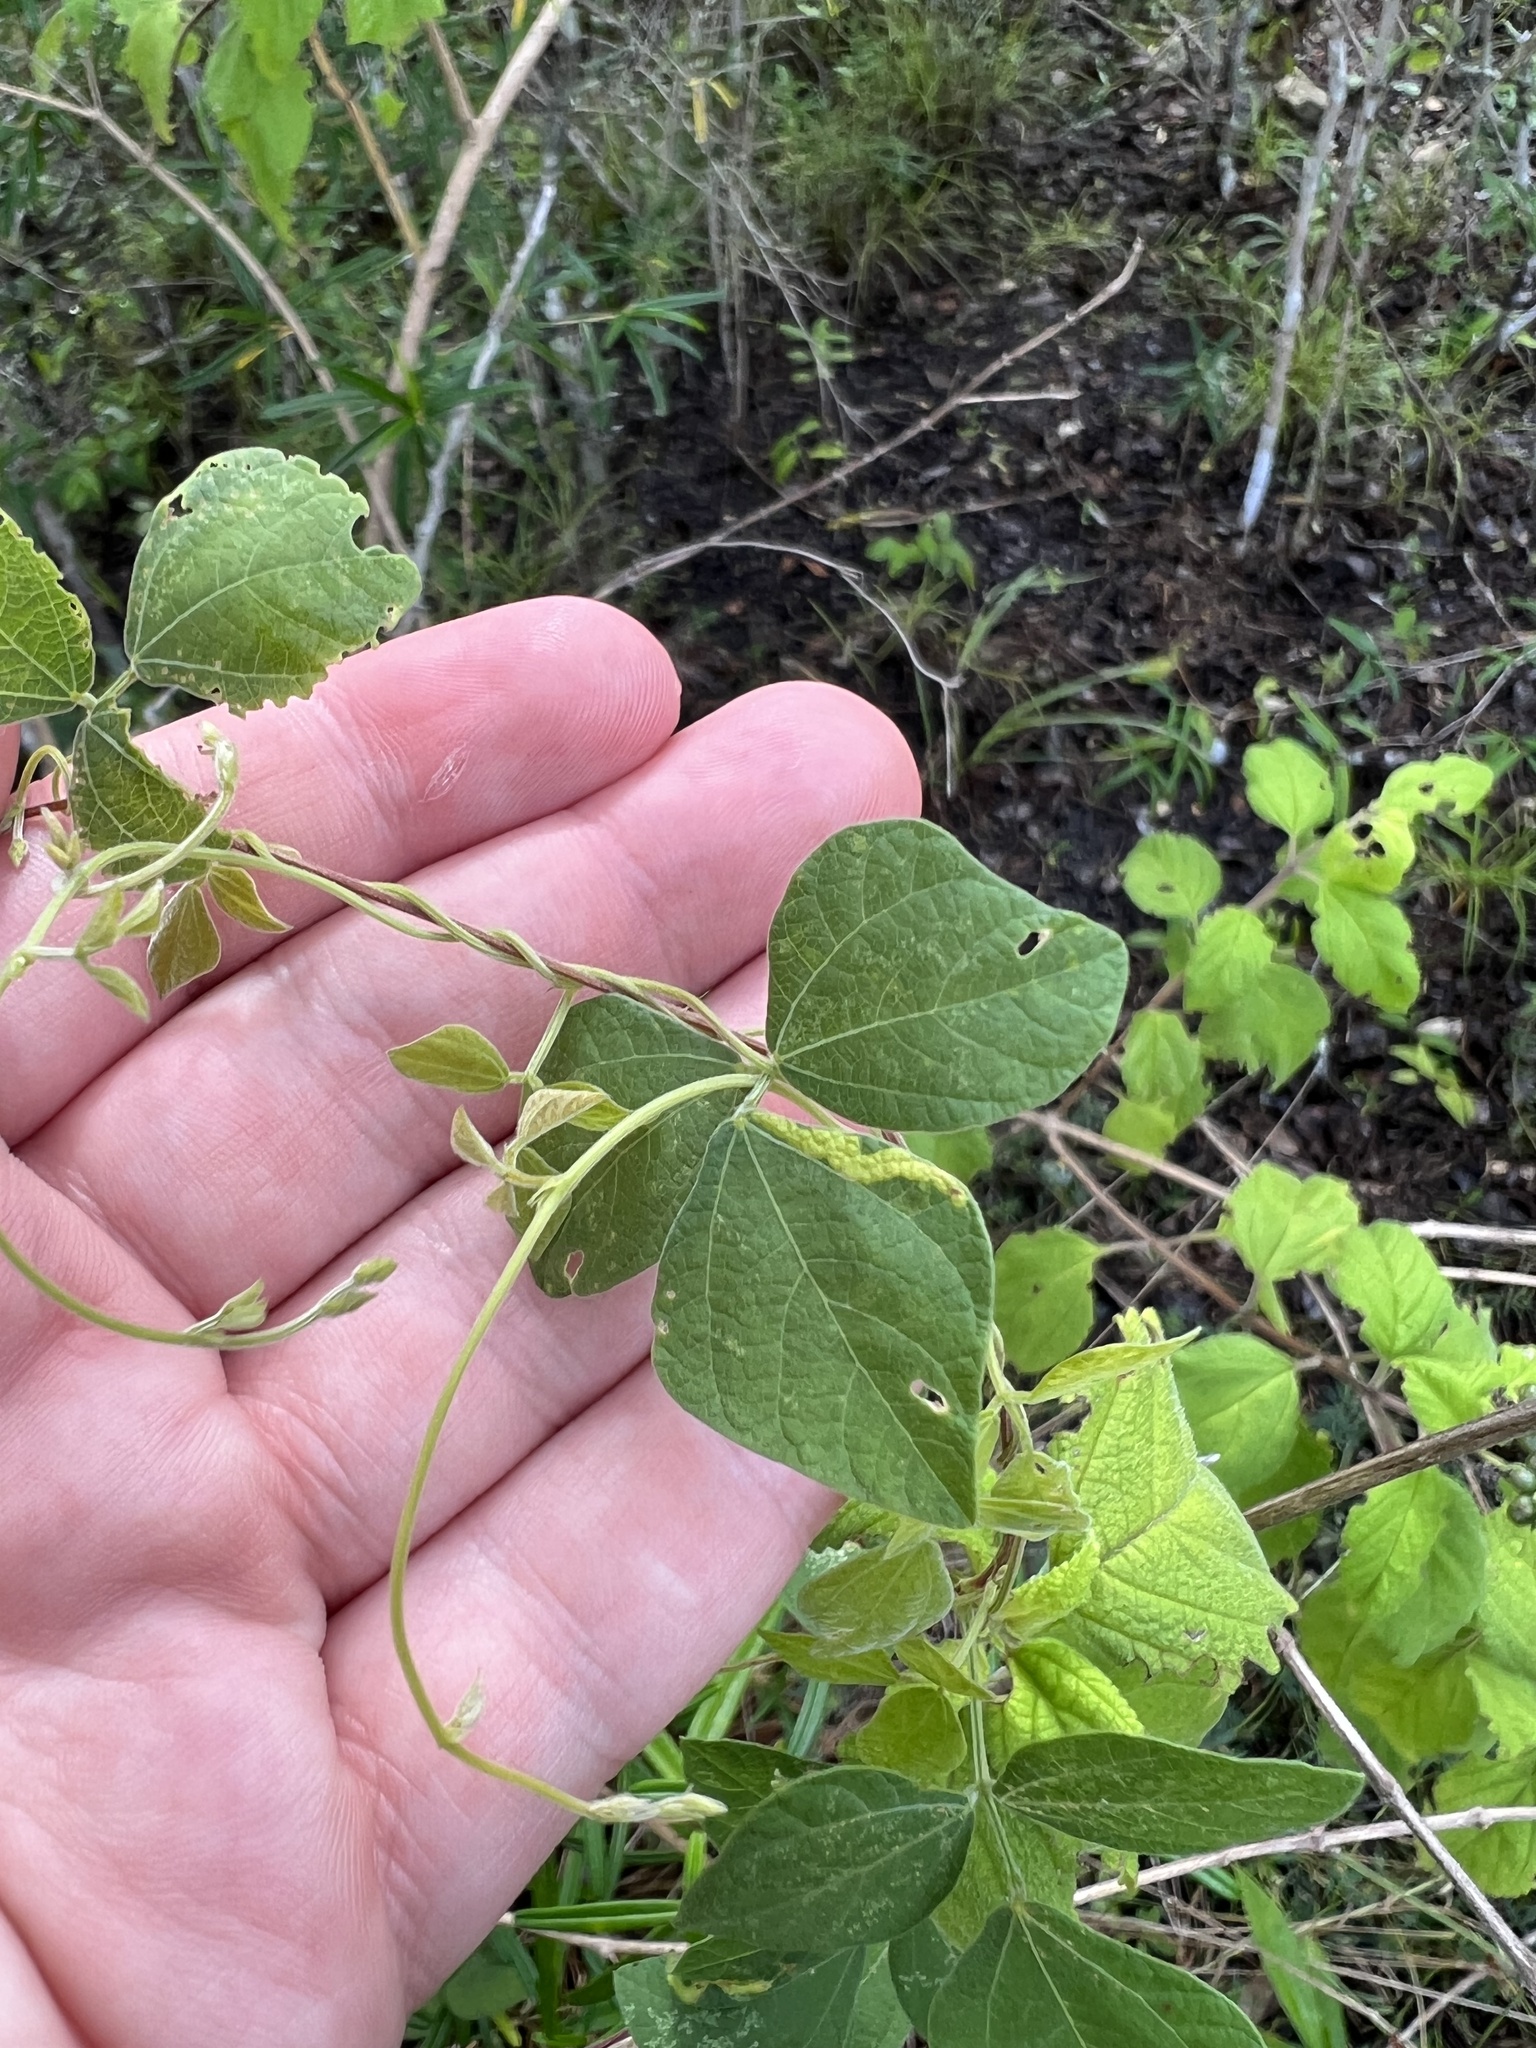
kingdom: Plantae
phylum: Tracheophyta
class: Magnoliopsida
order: Fabales
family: Fabaceae
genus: Rhynchosia
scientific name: Rhynchosia minima
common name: Least snoutbean
